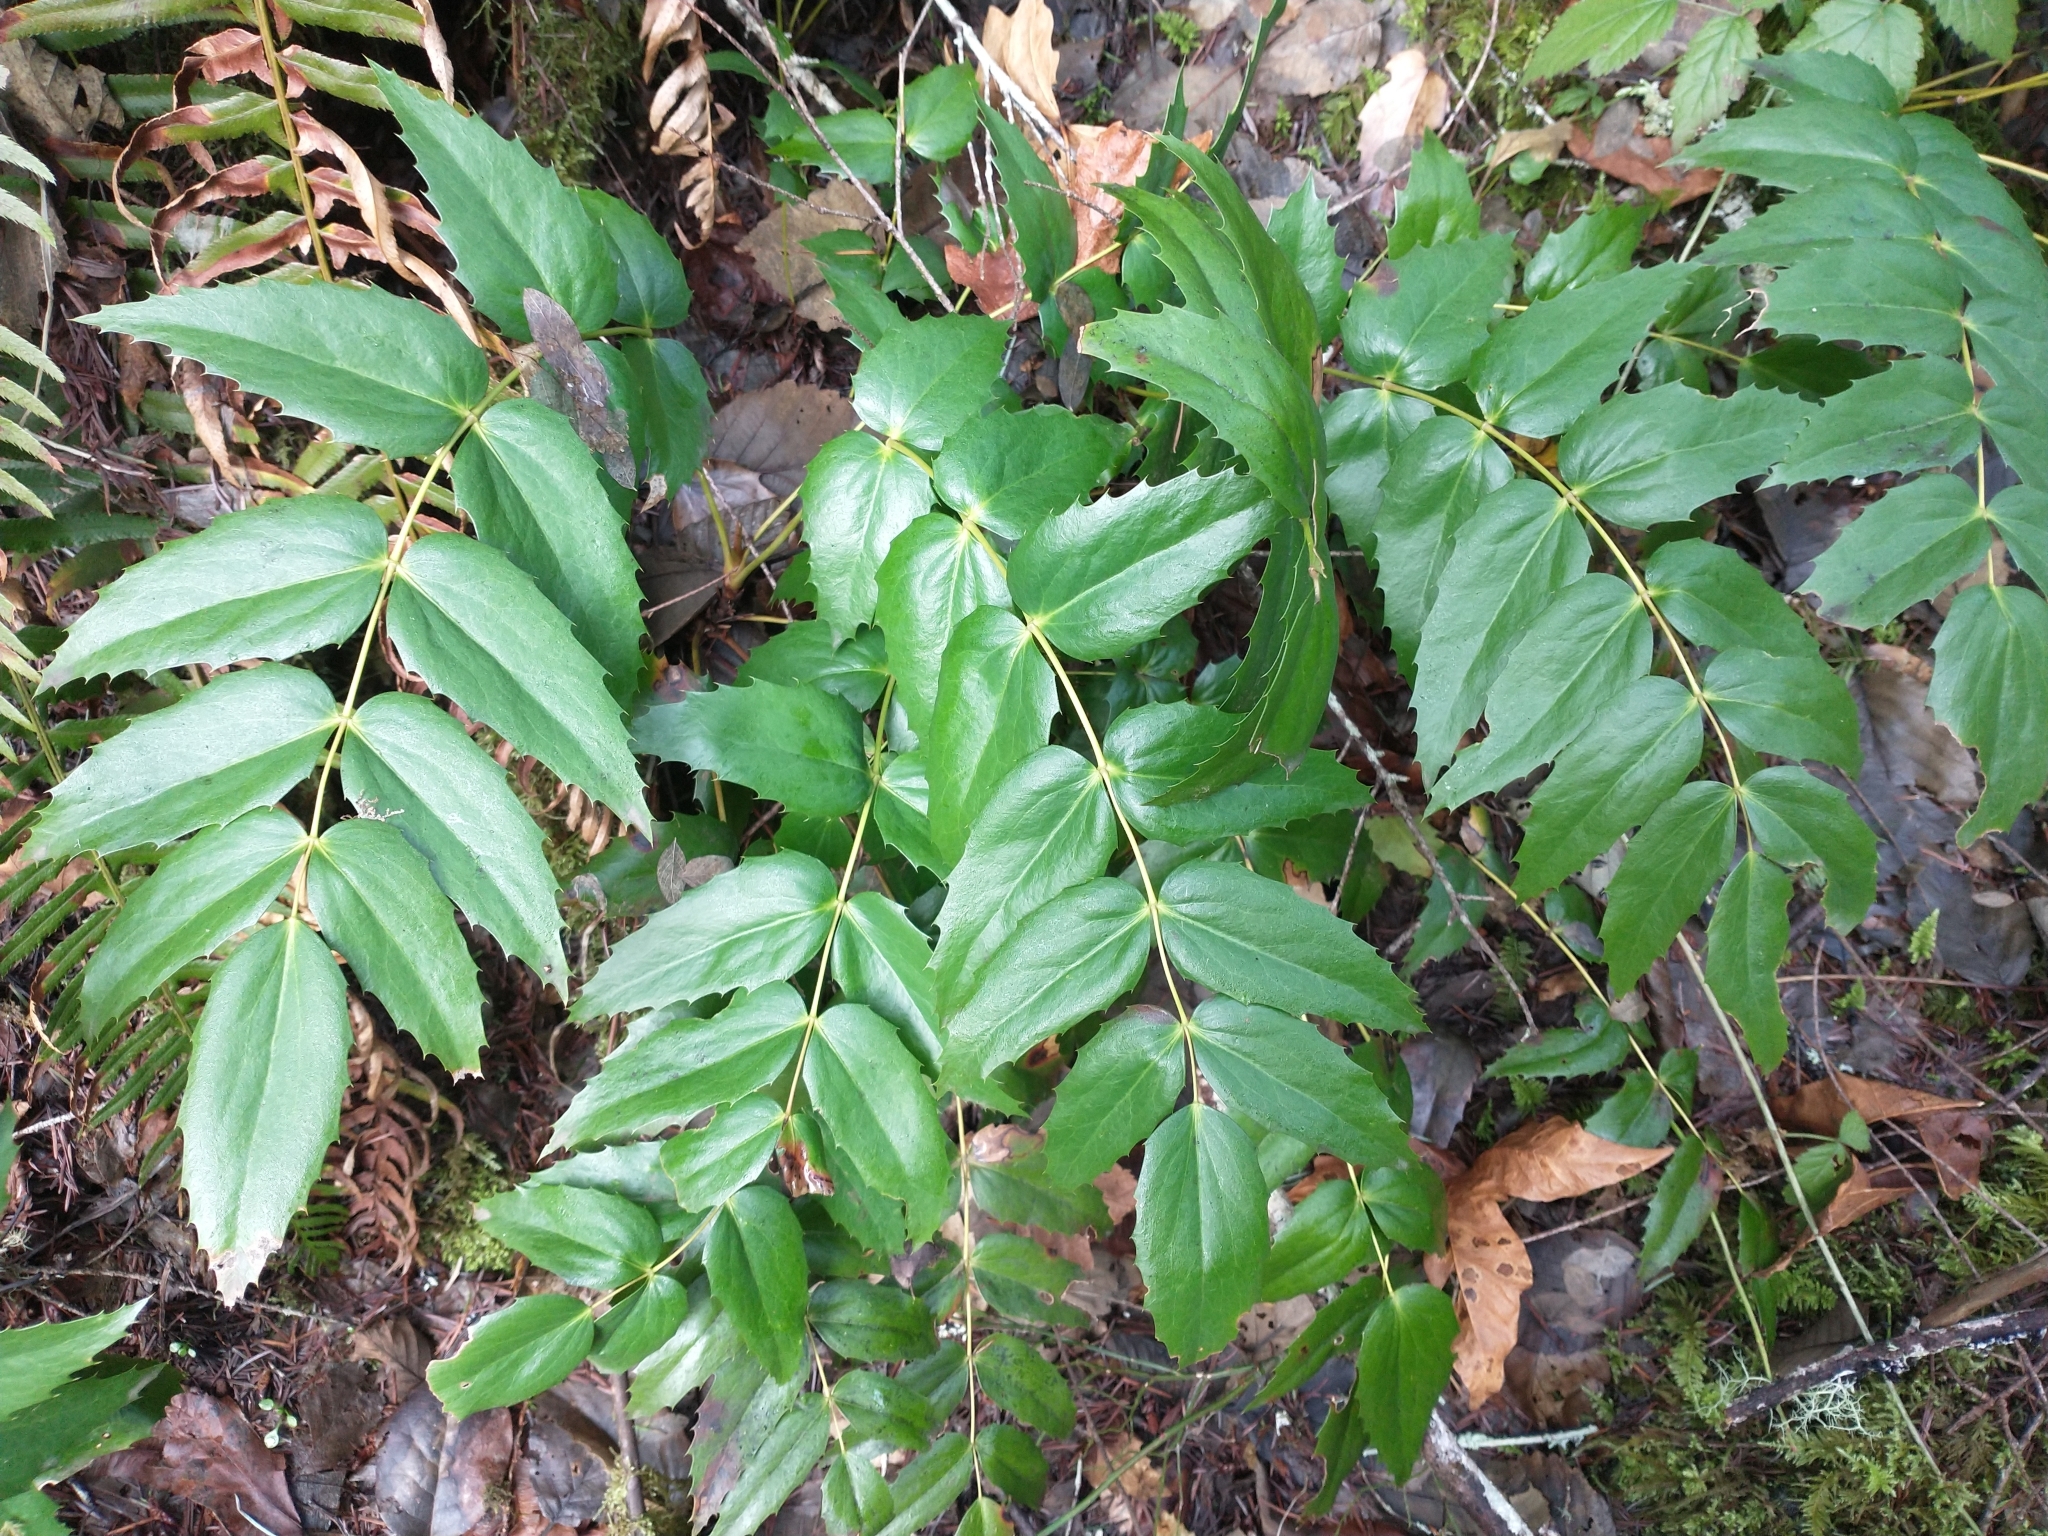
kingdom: Plantae
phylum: Tracheophyta
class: Magnoliopsida
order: Ranunculales
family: Berberidaceae
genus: Mahonia
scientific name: Mahonia nervosa
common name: Cascade oregon-grape
